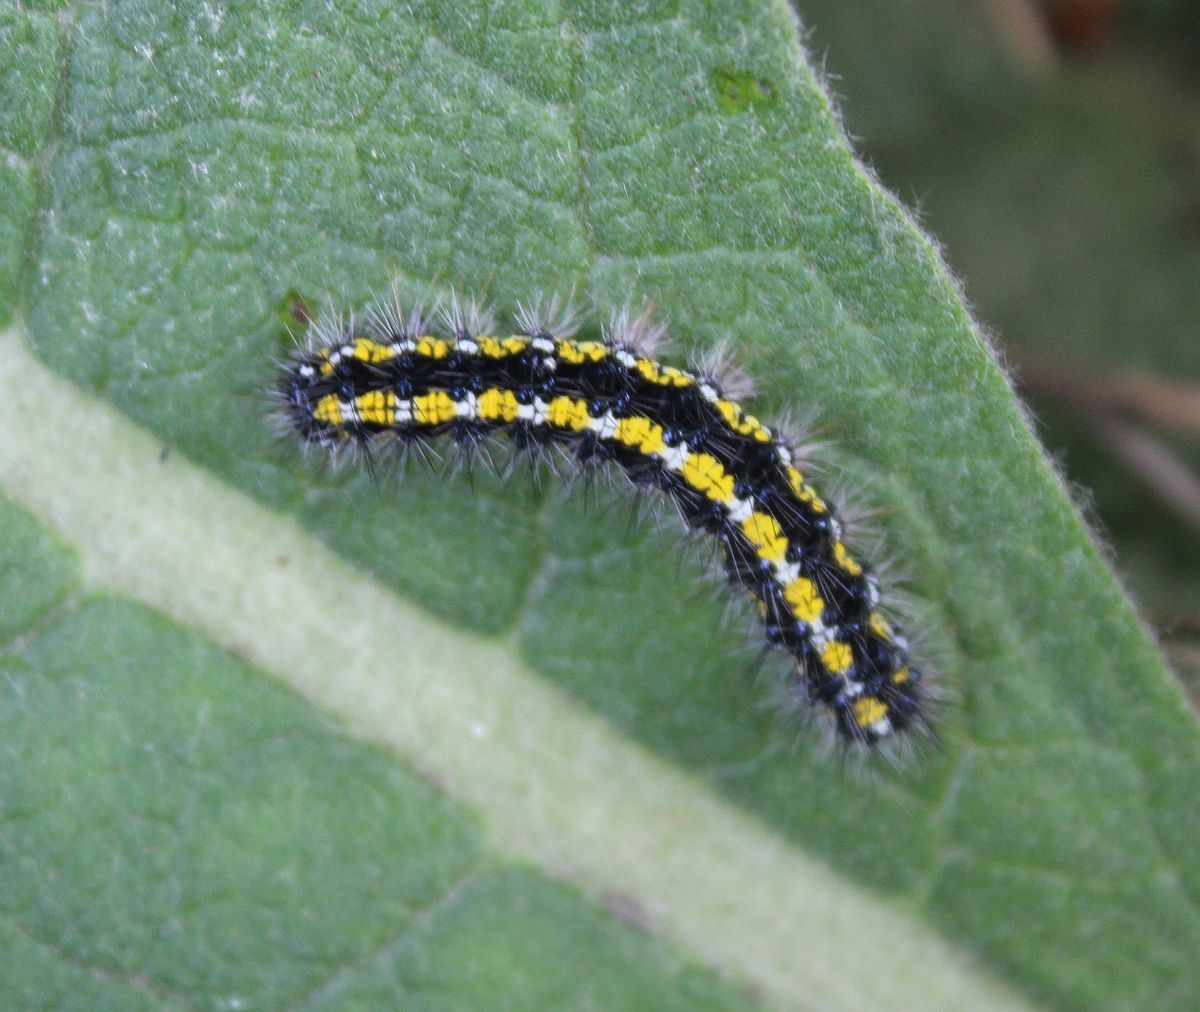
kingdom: Animalia
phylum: Arthropoda
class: Insecta
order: Lepidoptera
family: Erebidae
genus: Callimorpha
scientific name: Callimorpha dominula
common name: Scarlet tiger
